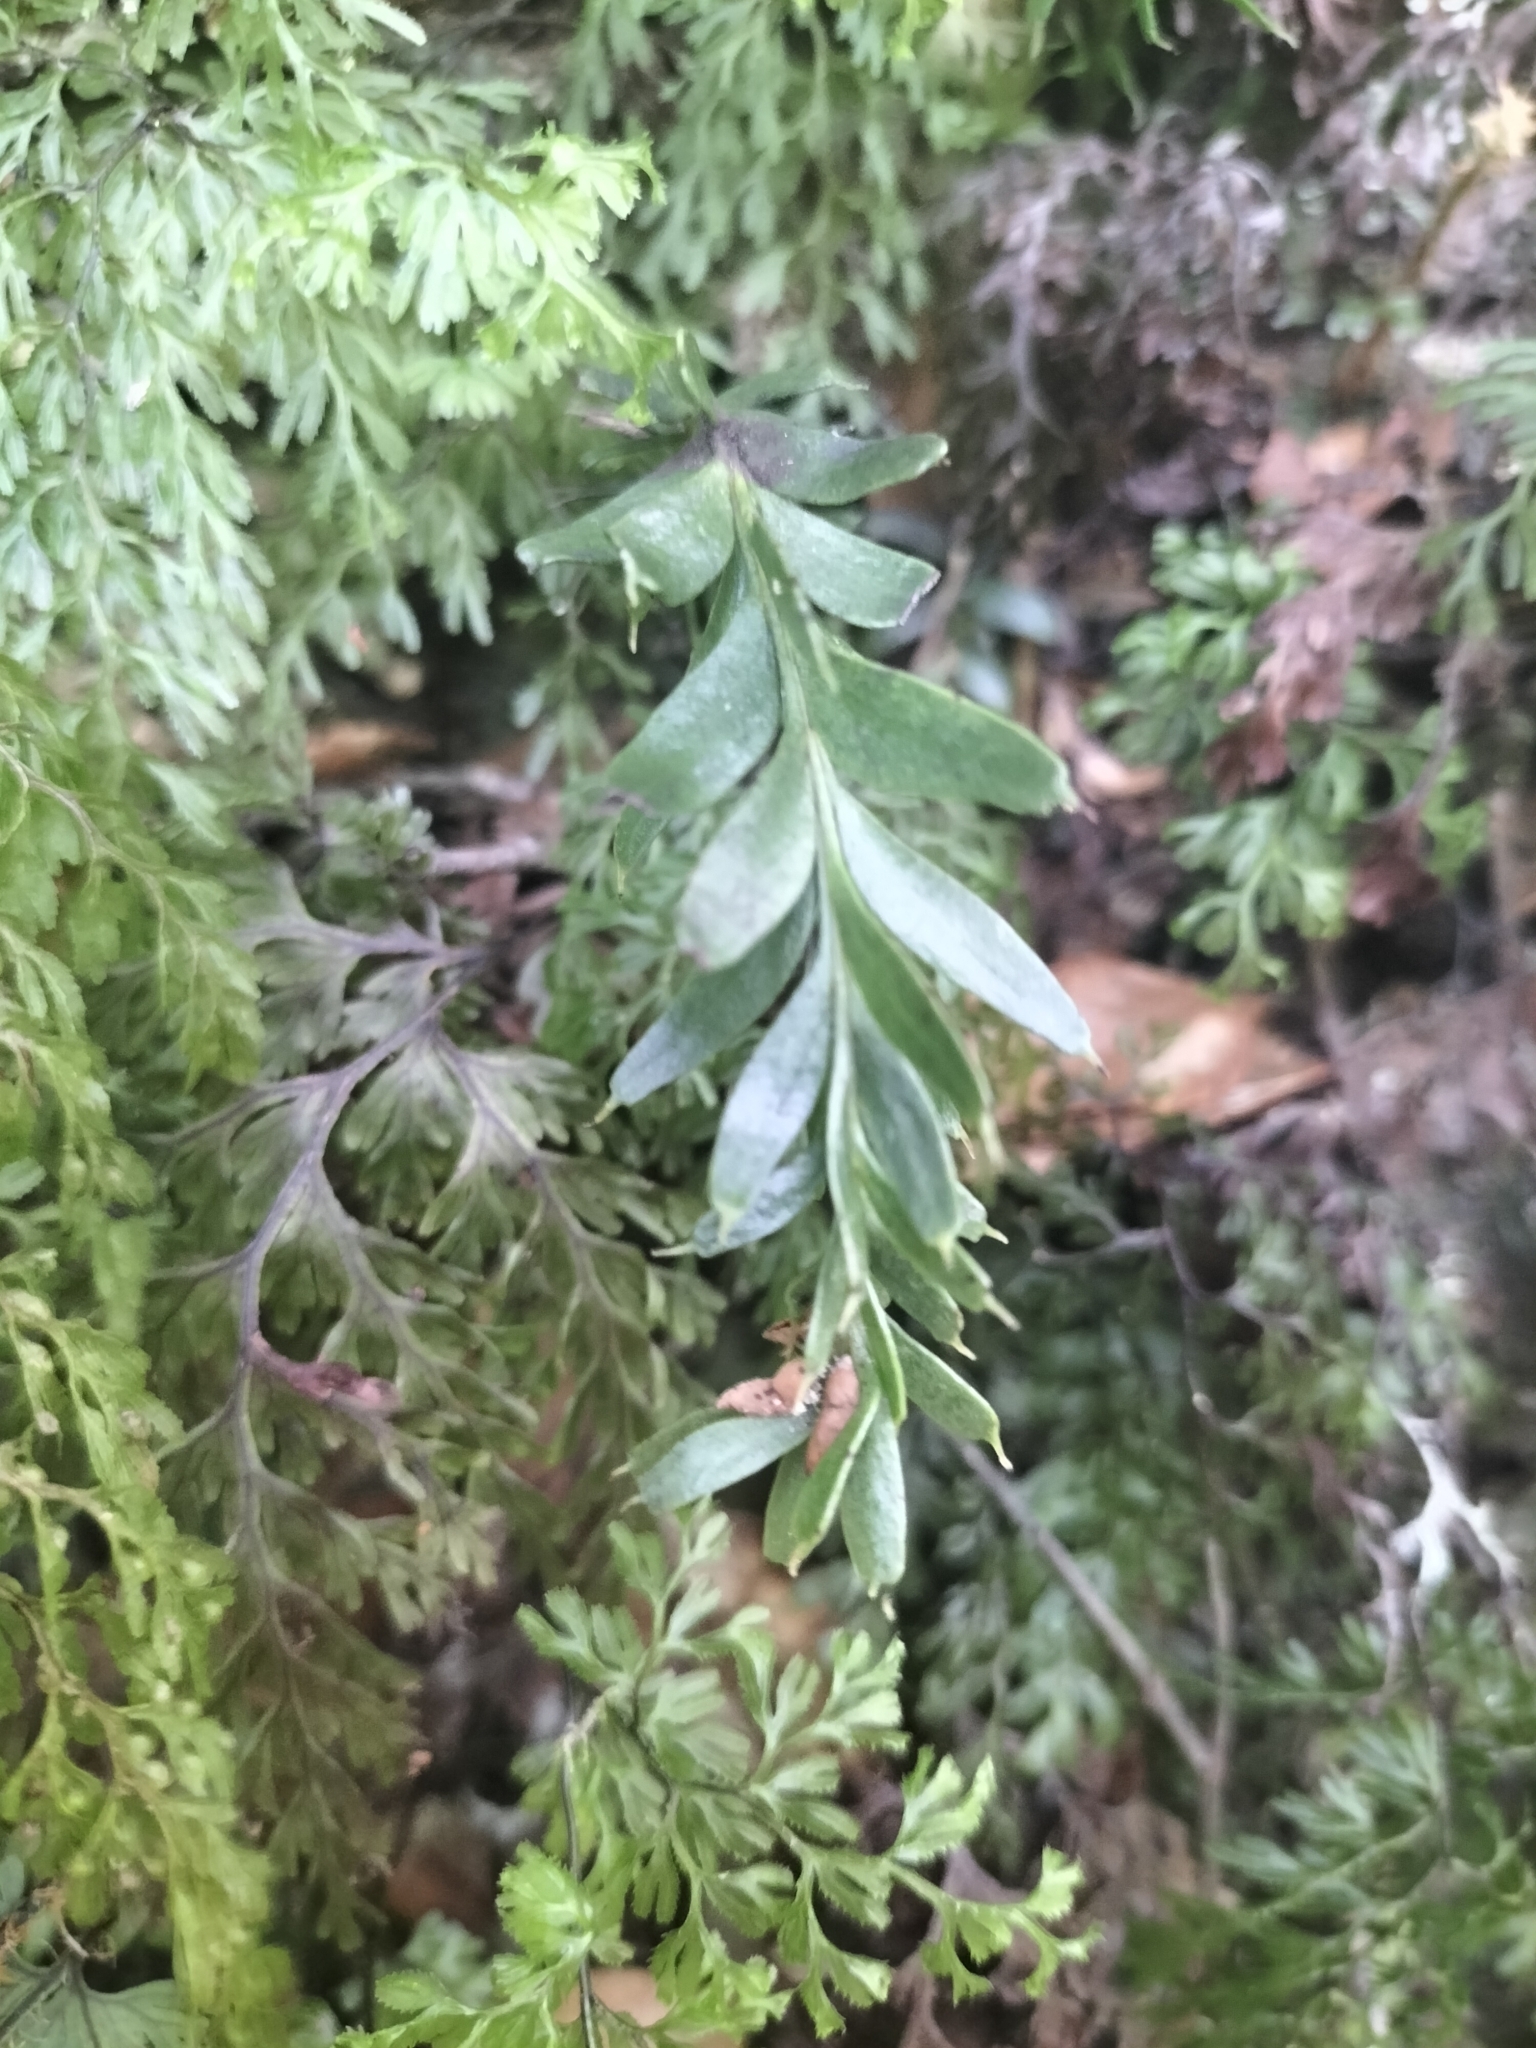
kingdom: Plantae
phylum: Tracheophyta
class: Polypodiopsida
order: Psilotales
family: Psilotaceae
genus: Tmesipteris
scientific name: Tmesipteris tannensis
